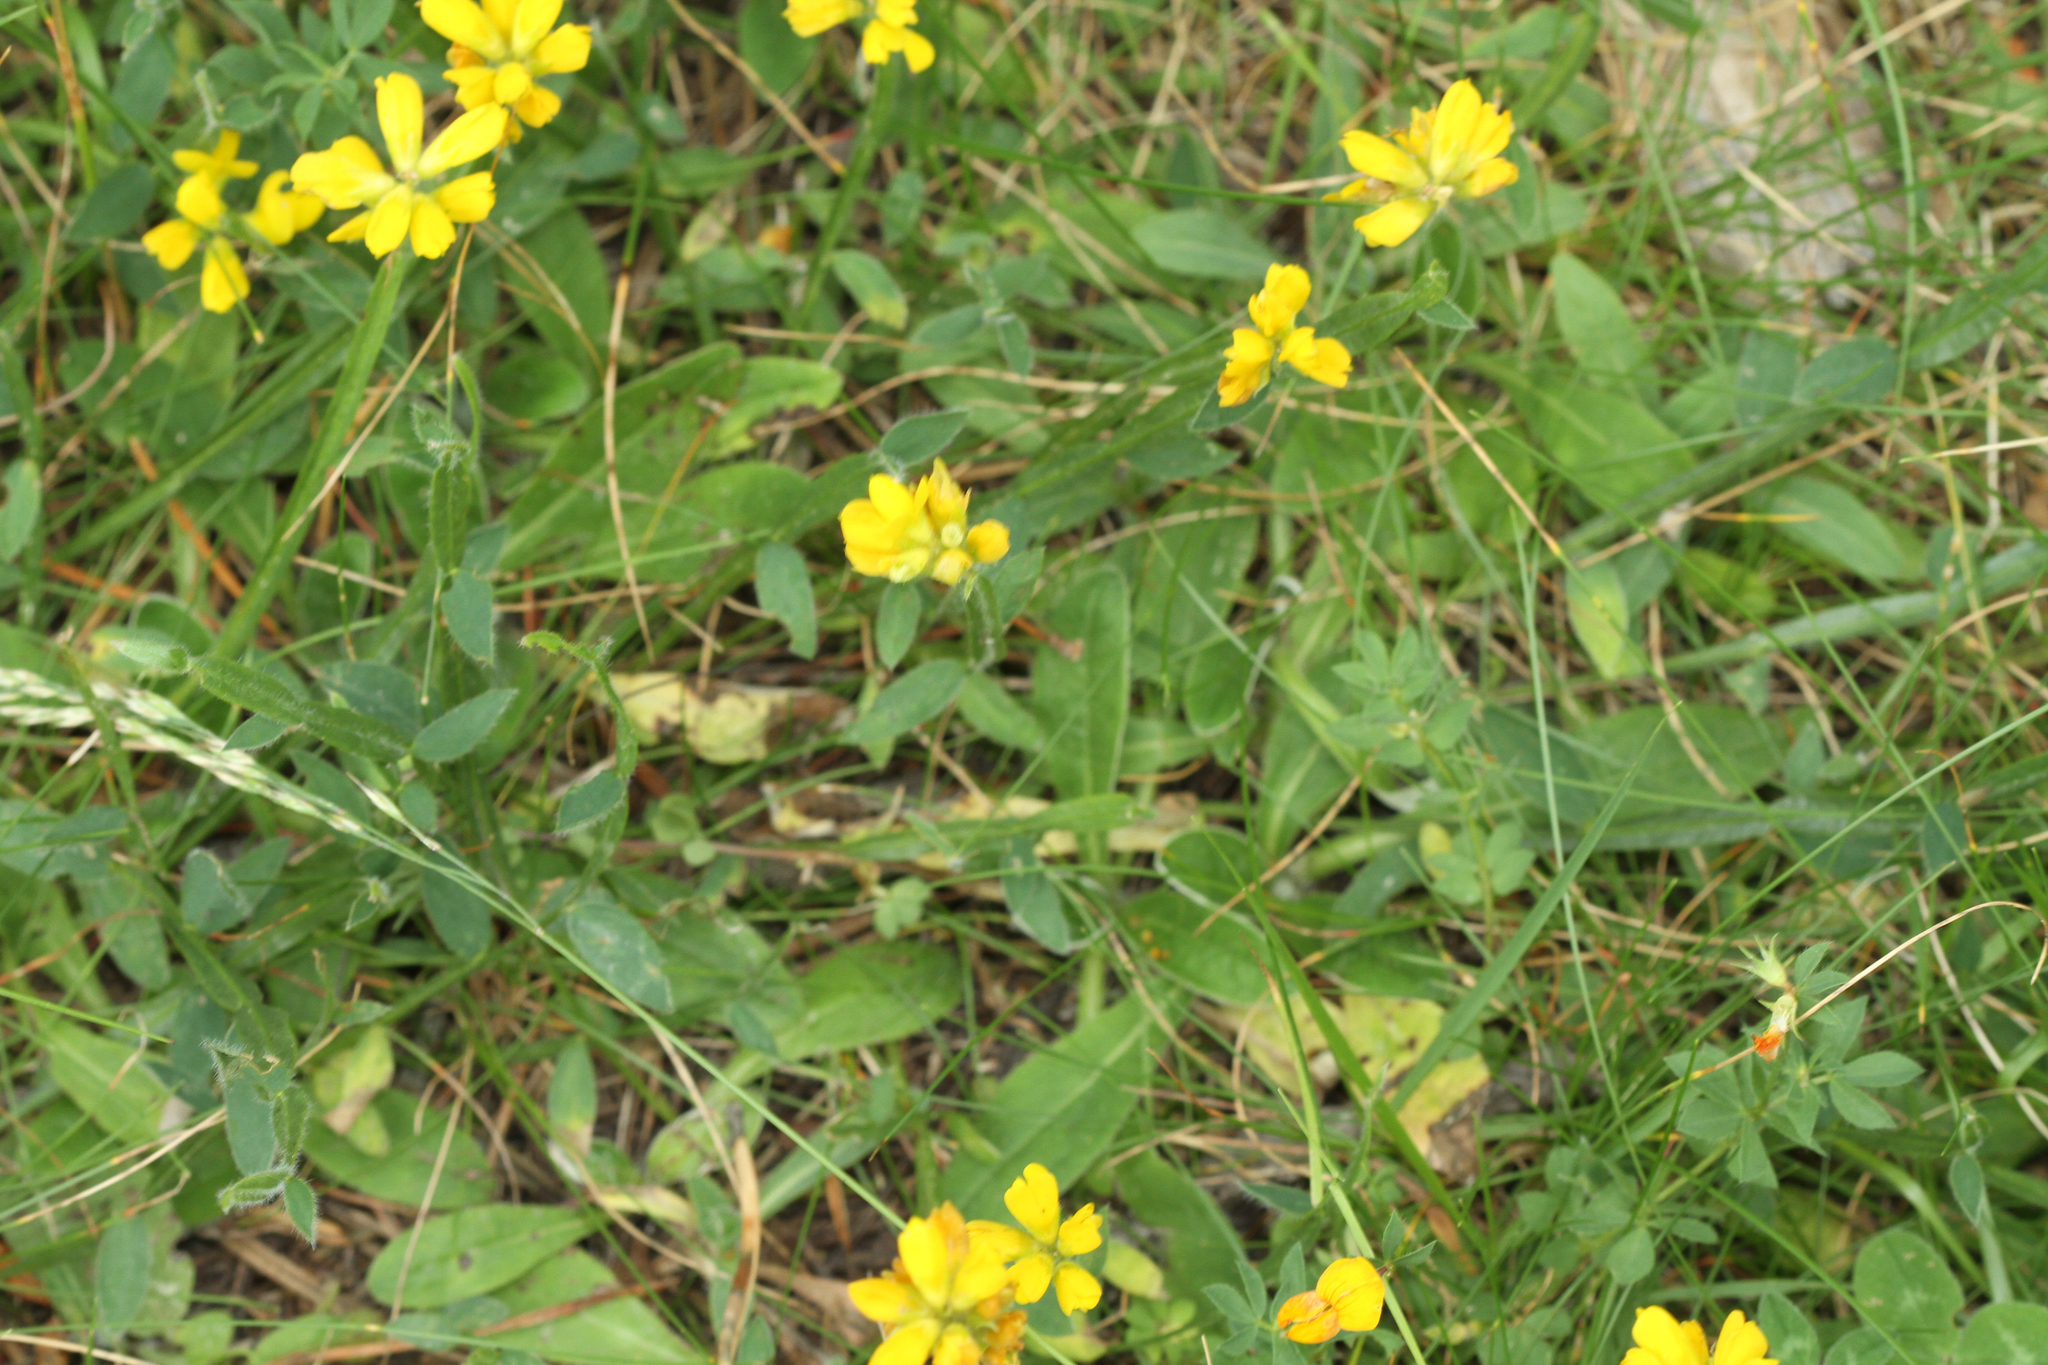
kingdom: Plantae
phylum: Tracheophyta
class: Magnoliopsida
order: Fabales
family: Fabaceae
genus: Genista
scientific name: Genista sagittalis
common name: Winged greenweed
